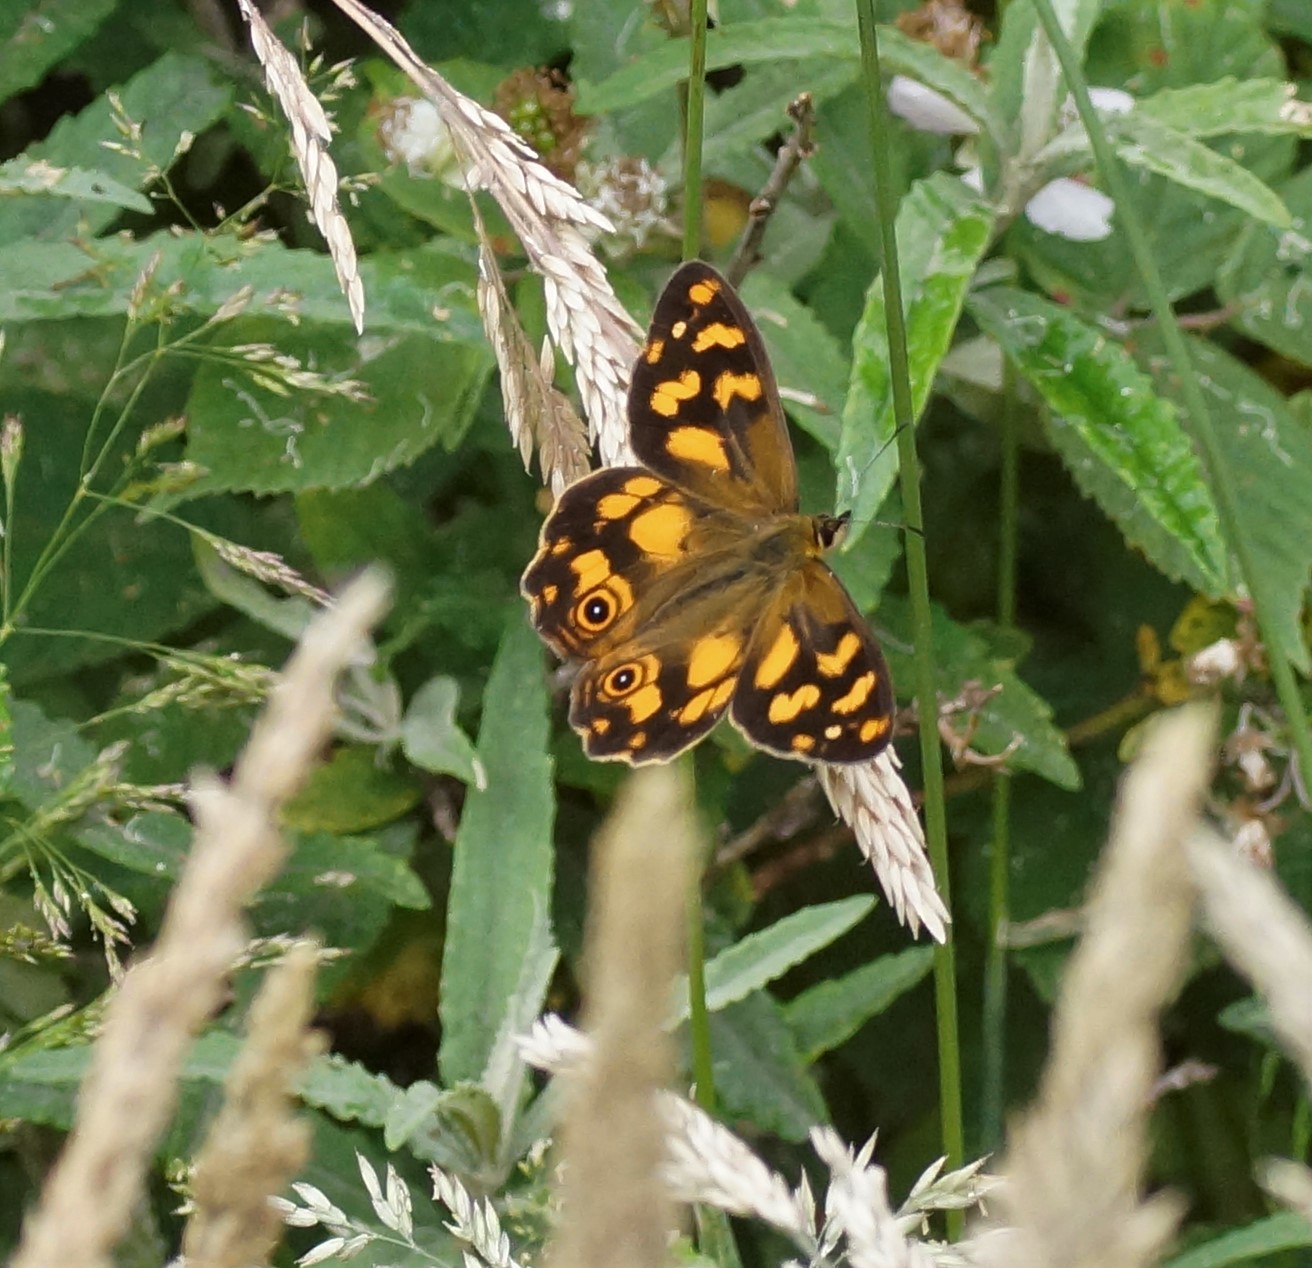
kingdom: Animalia
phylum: Arthropoda
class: Insecta
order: Lepidoptera
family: Nymphalidae
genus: Heteronympha
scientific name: Heteronympha banksii
